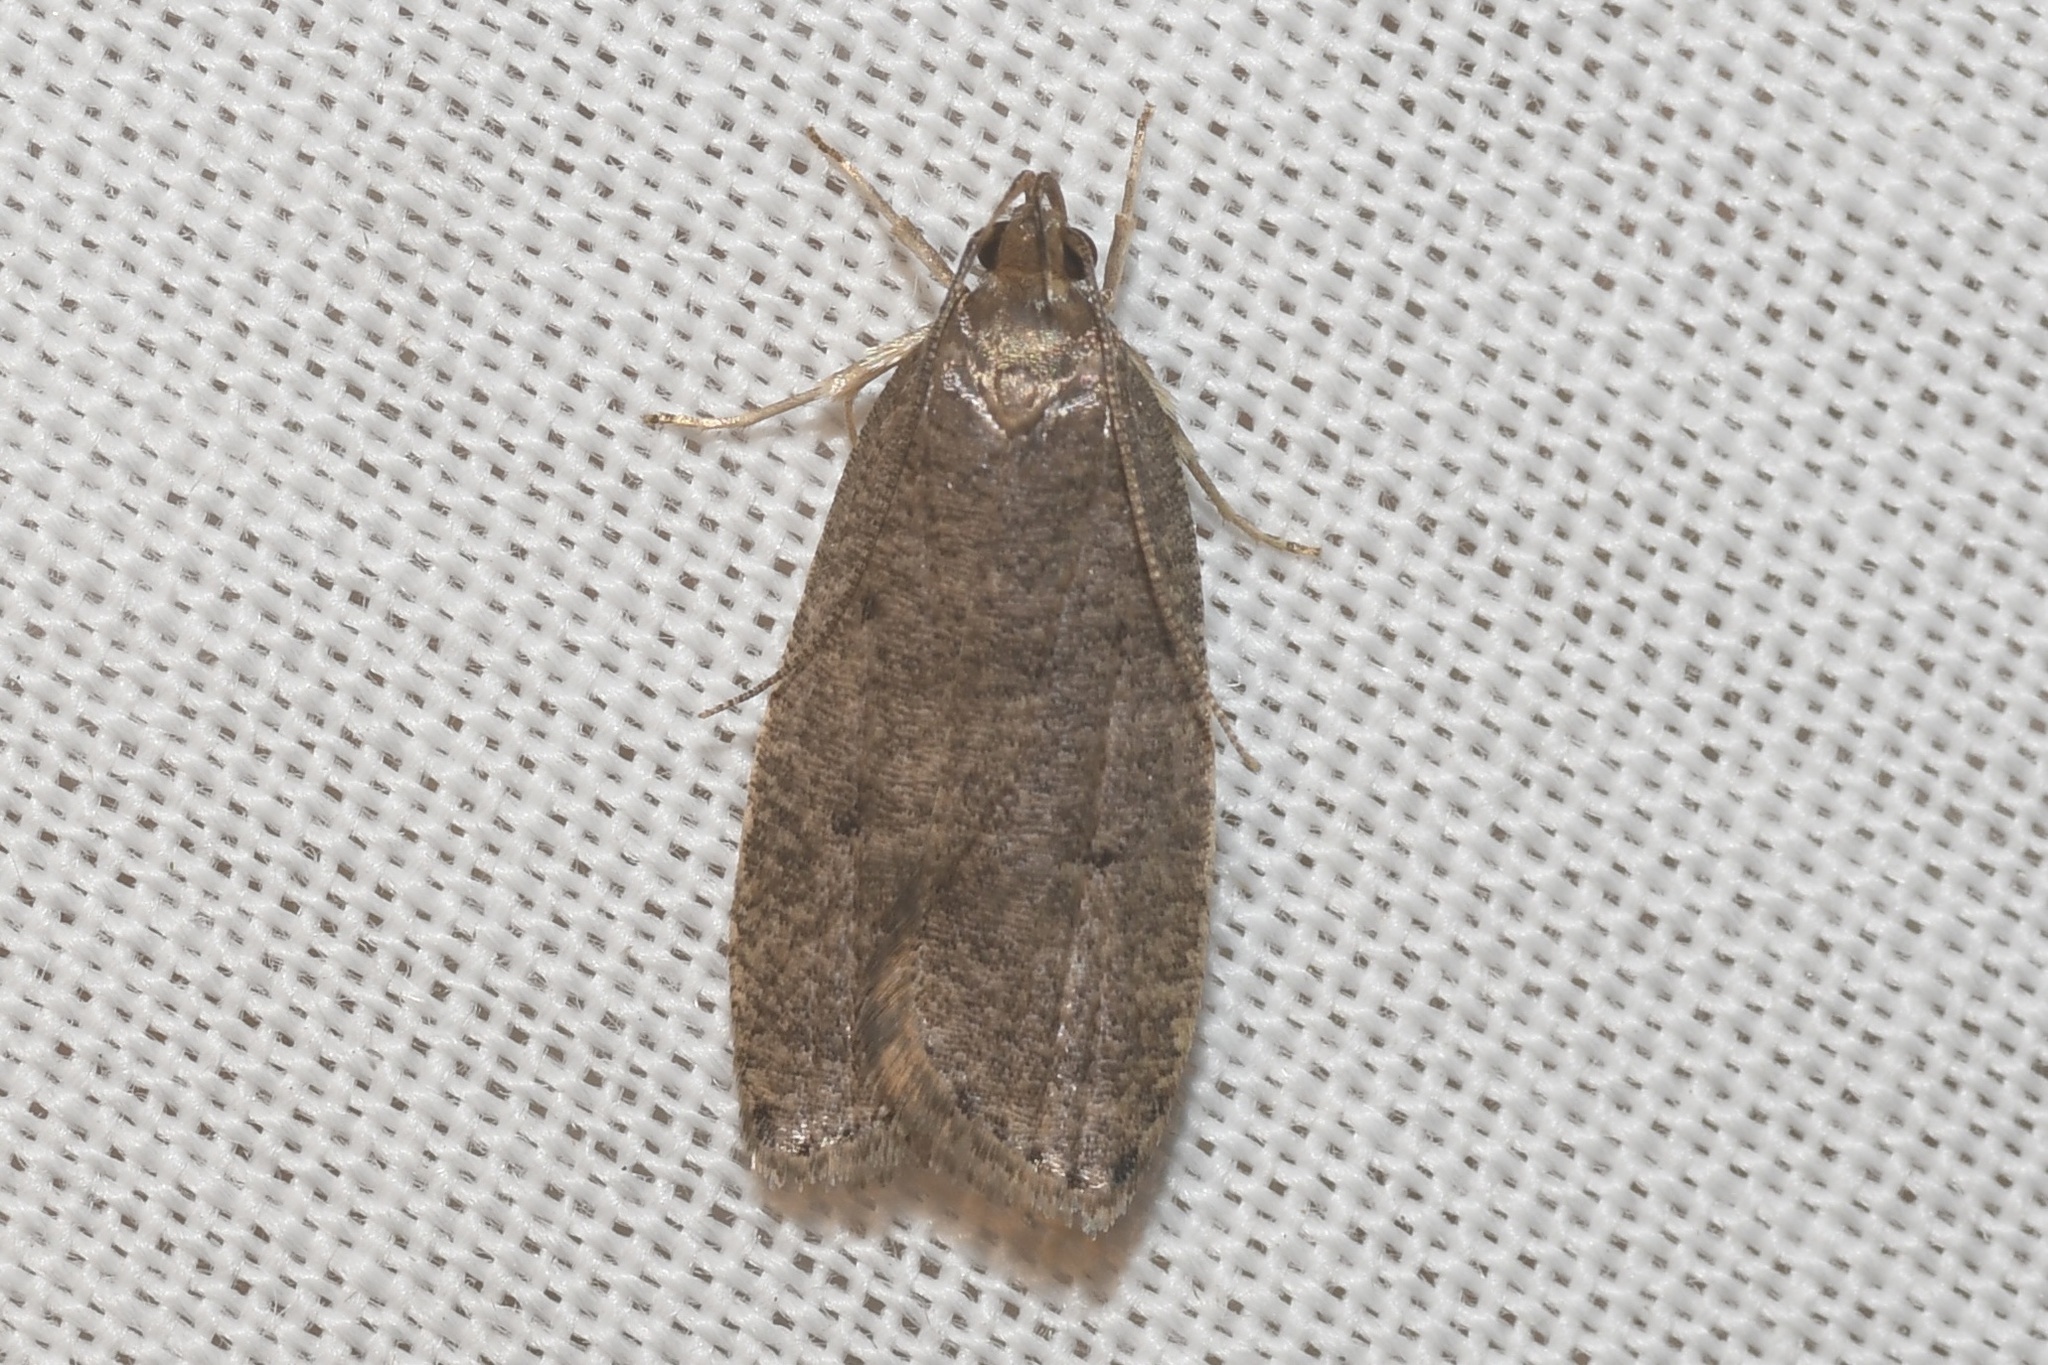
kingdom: Animalia
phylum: Arthropoda
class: Insecta
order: Lepidoptera
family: Depressariidae
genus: Psilocorsis
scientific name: Psilocorsis reflexella
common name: Dotted leaftier moth
